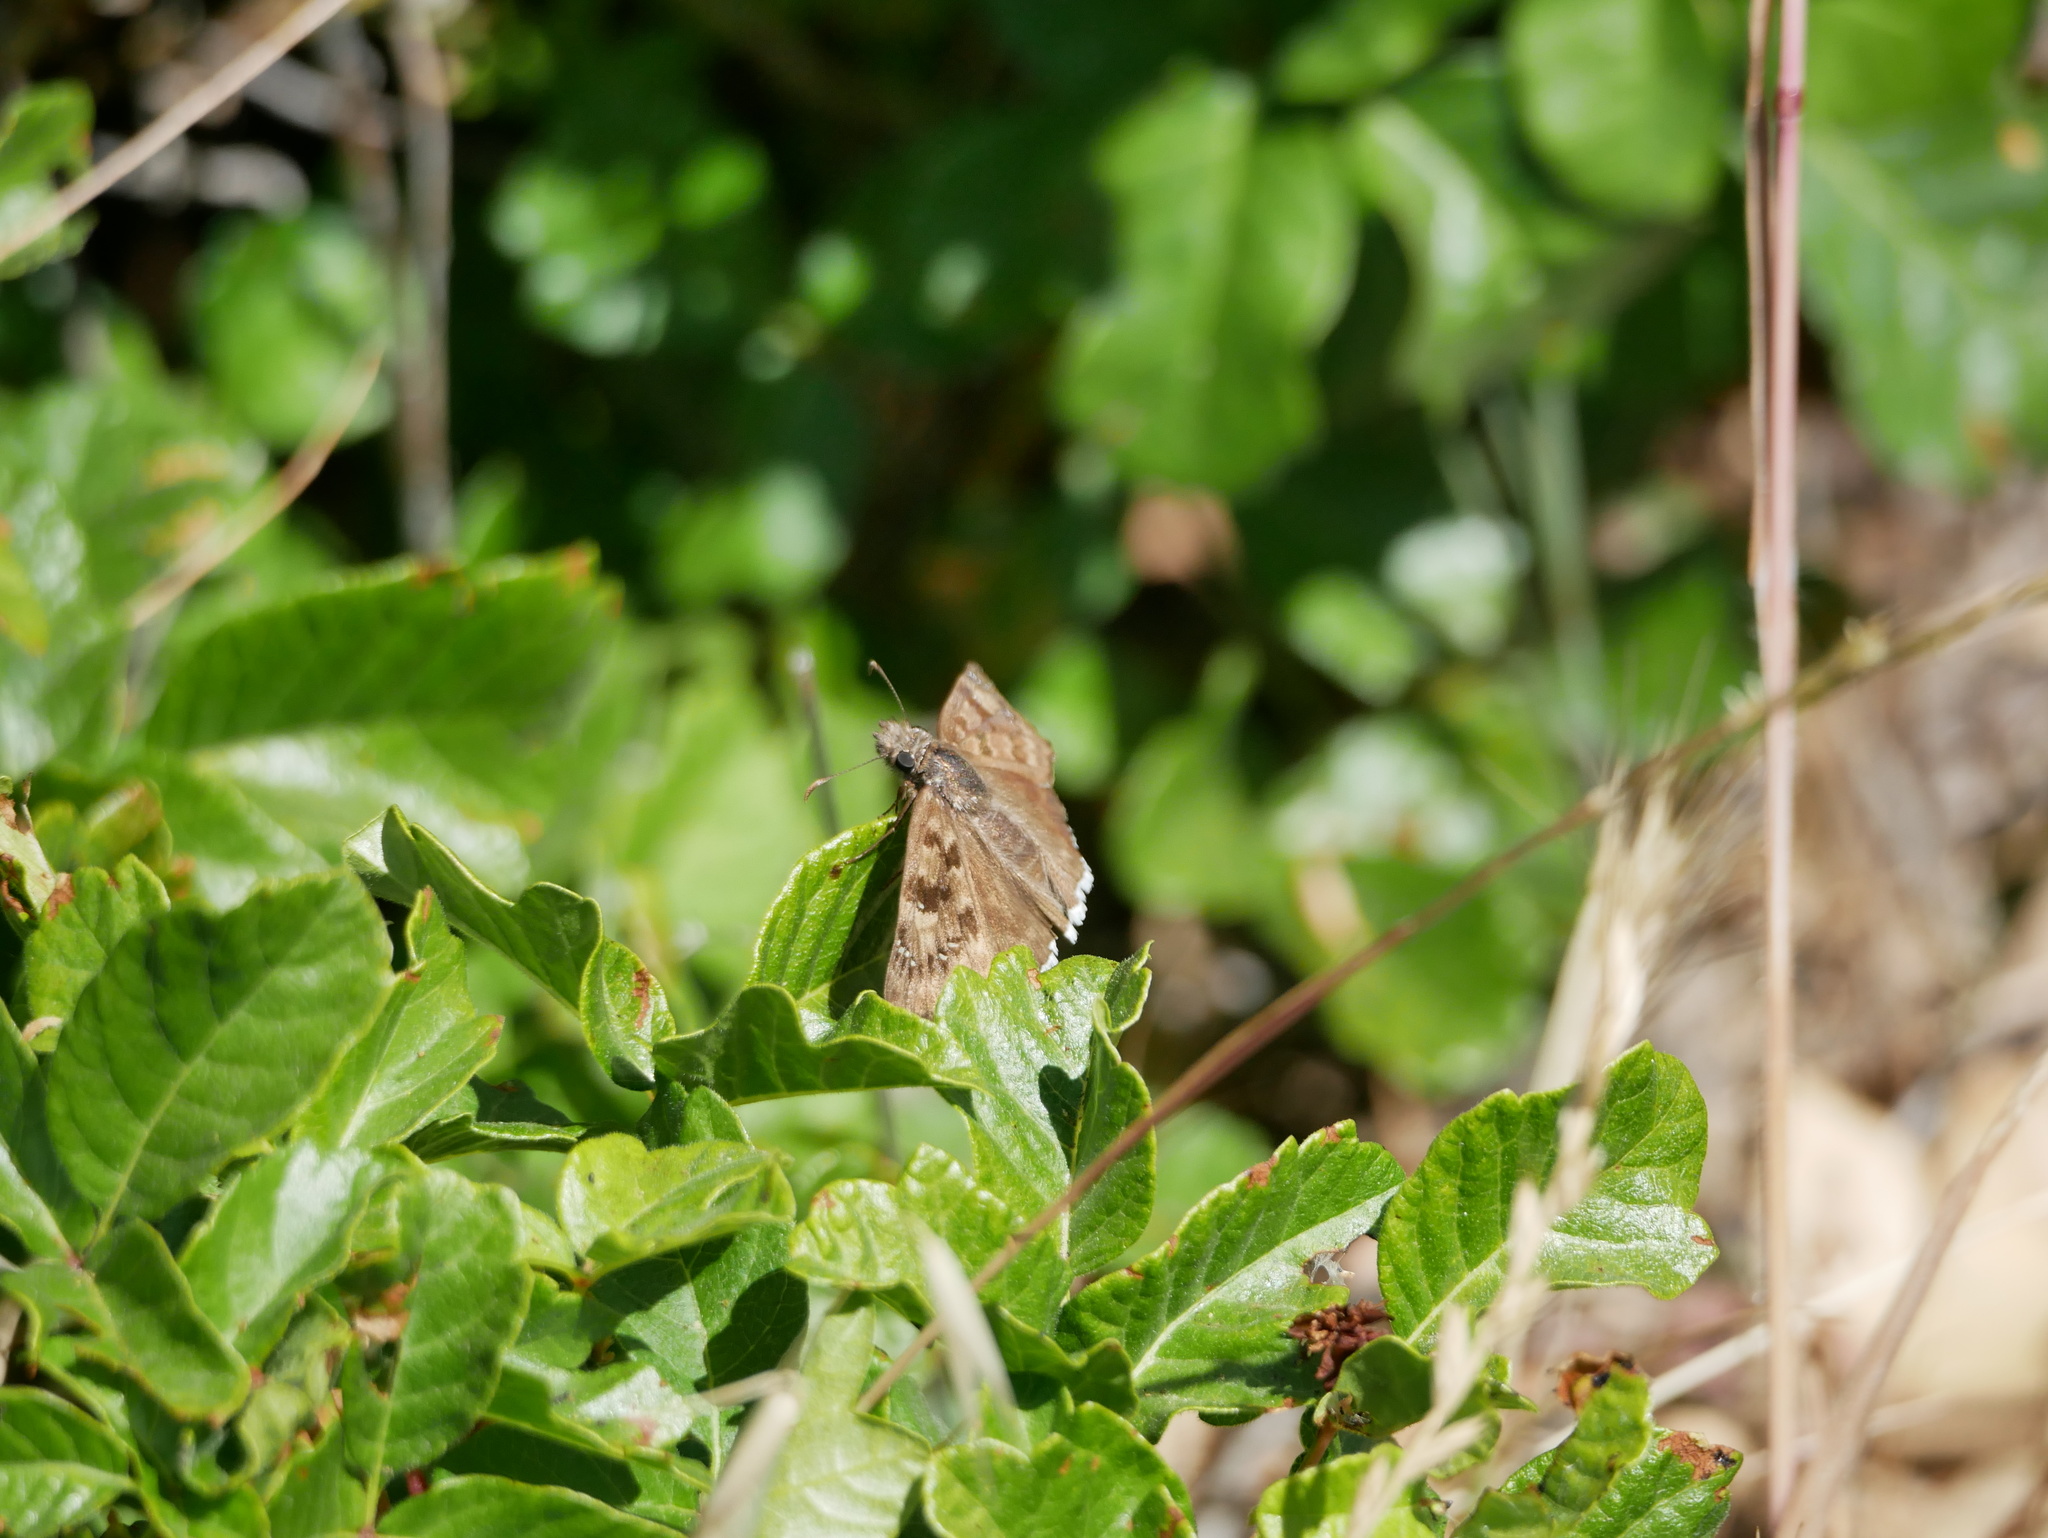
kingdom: Animalia
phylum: Arthropoda
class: Insecta
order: Lepidoptera
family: Hesperiidae
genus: Erynnis
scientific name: Erynnis tristis
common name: Mournful duskywing
